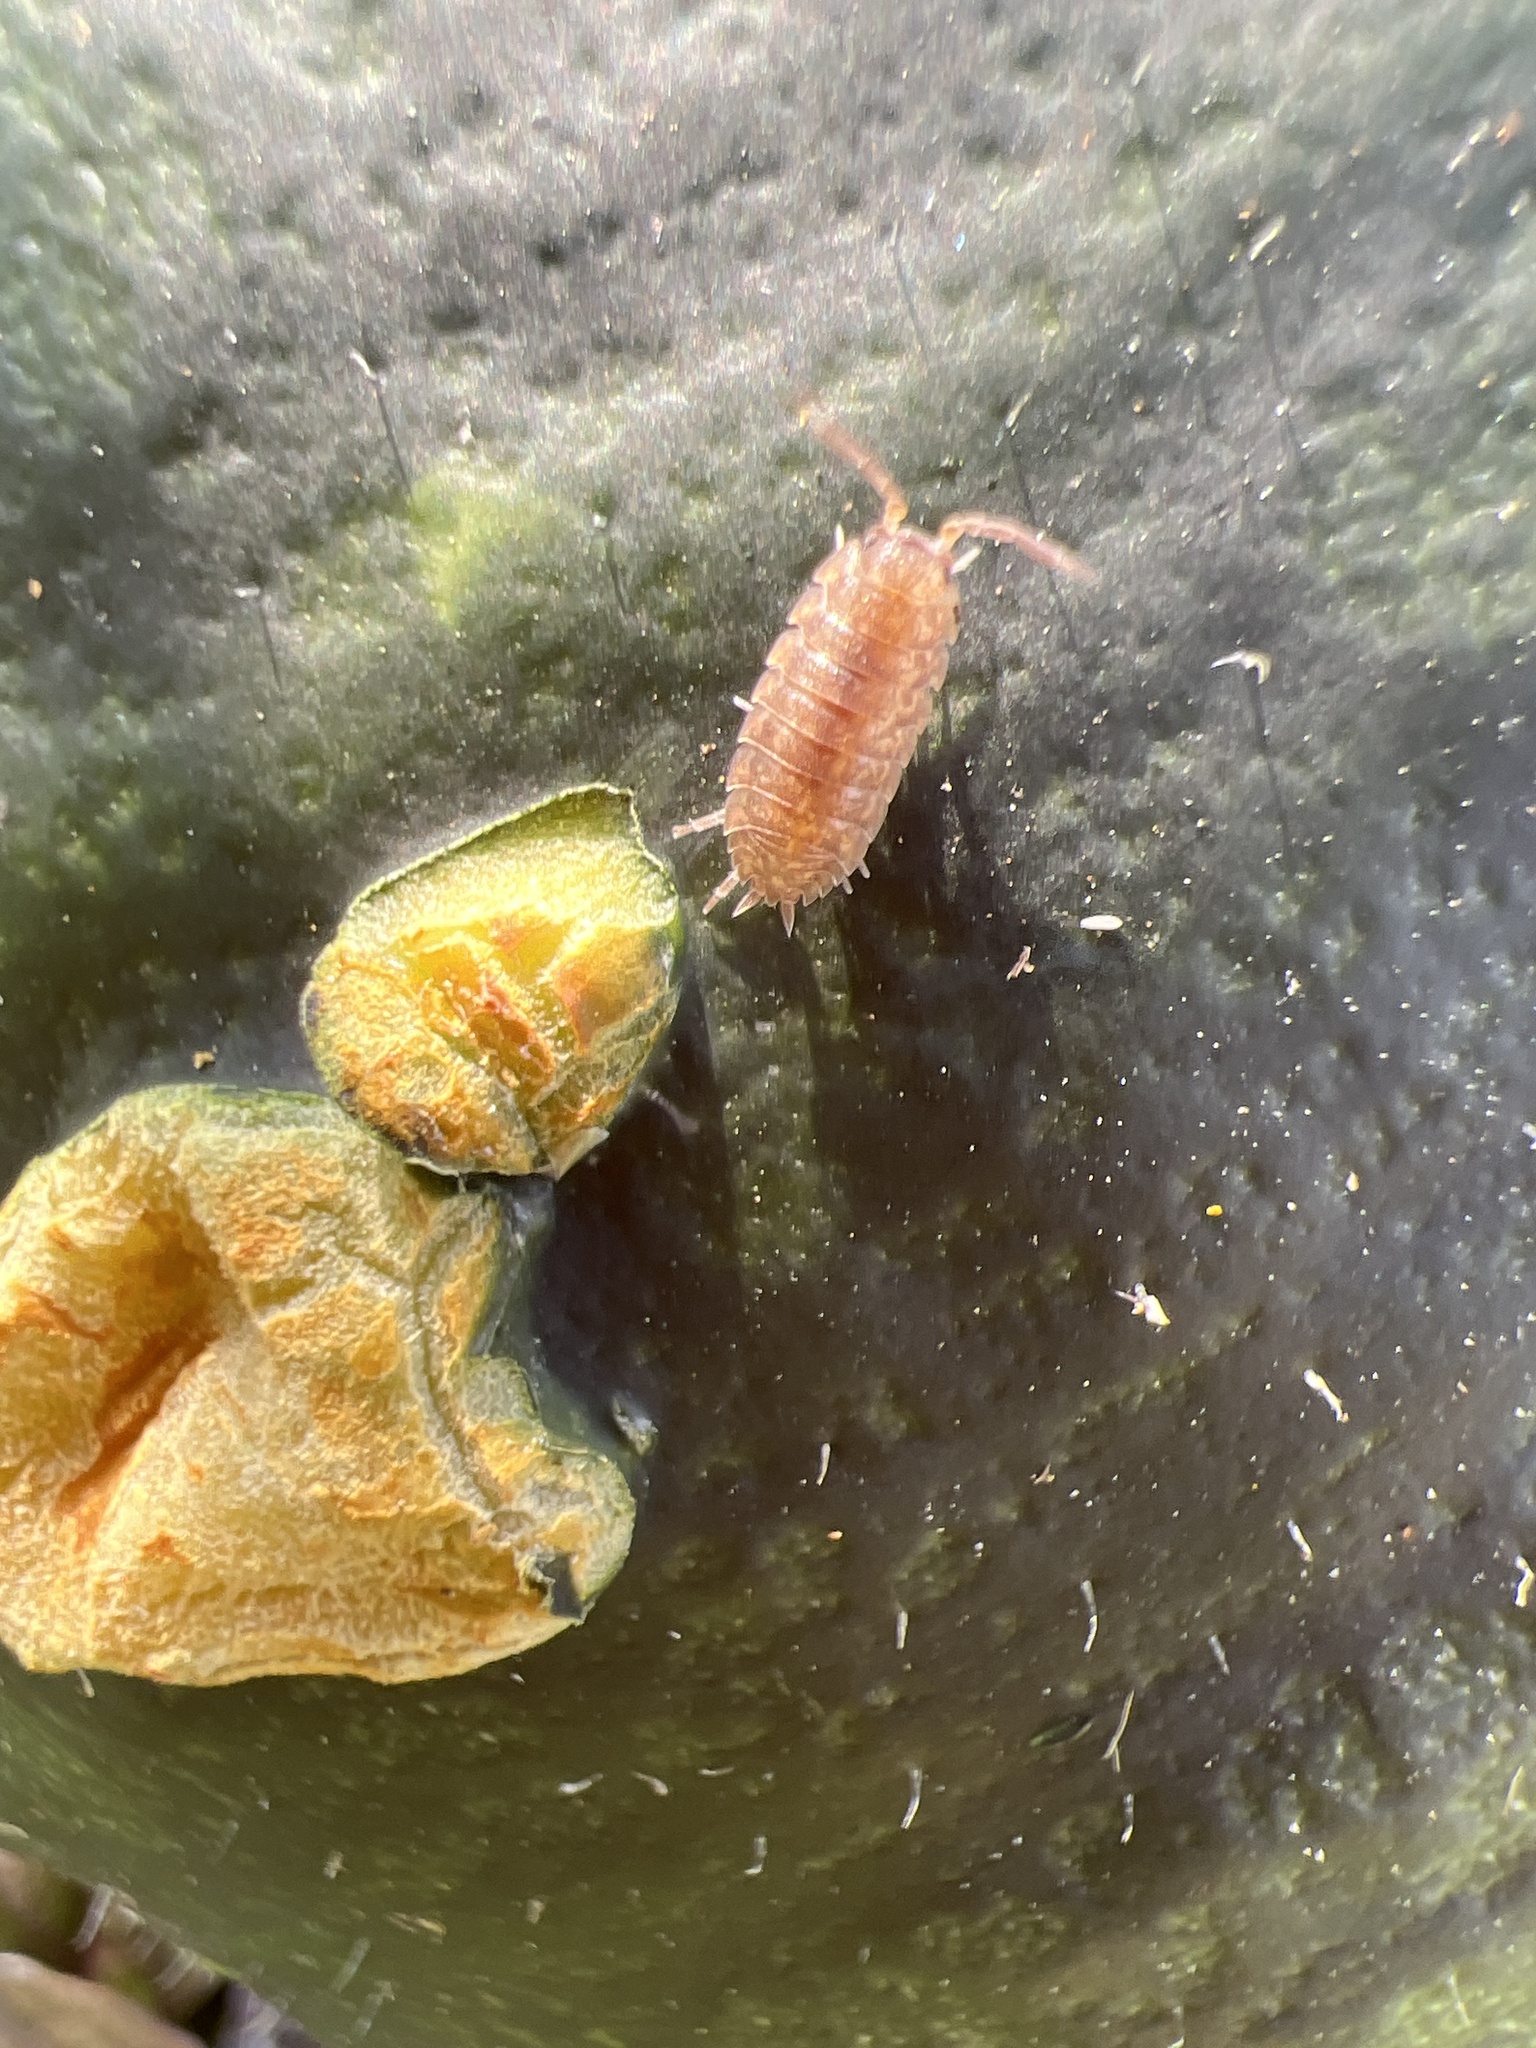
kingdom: Animalia
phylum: Arthropoda
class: Malacostraca
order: Isopoda
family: Porcellionidae
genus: Porcellio
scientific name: Porcellio scaber
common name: Common rough woodlouse
